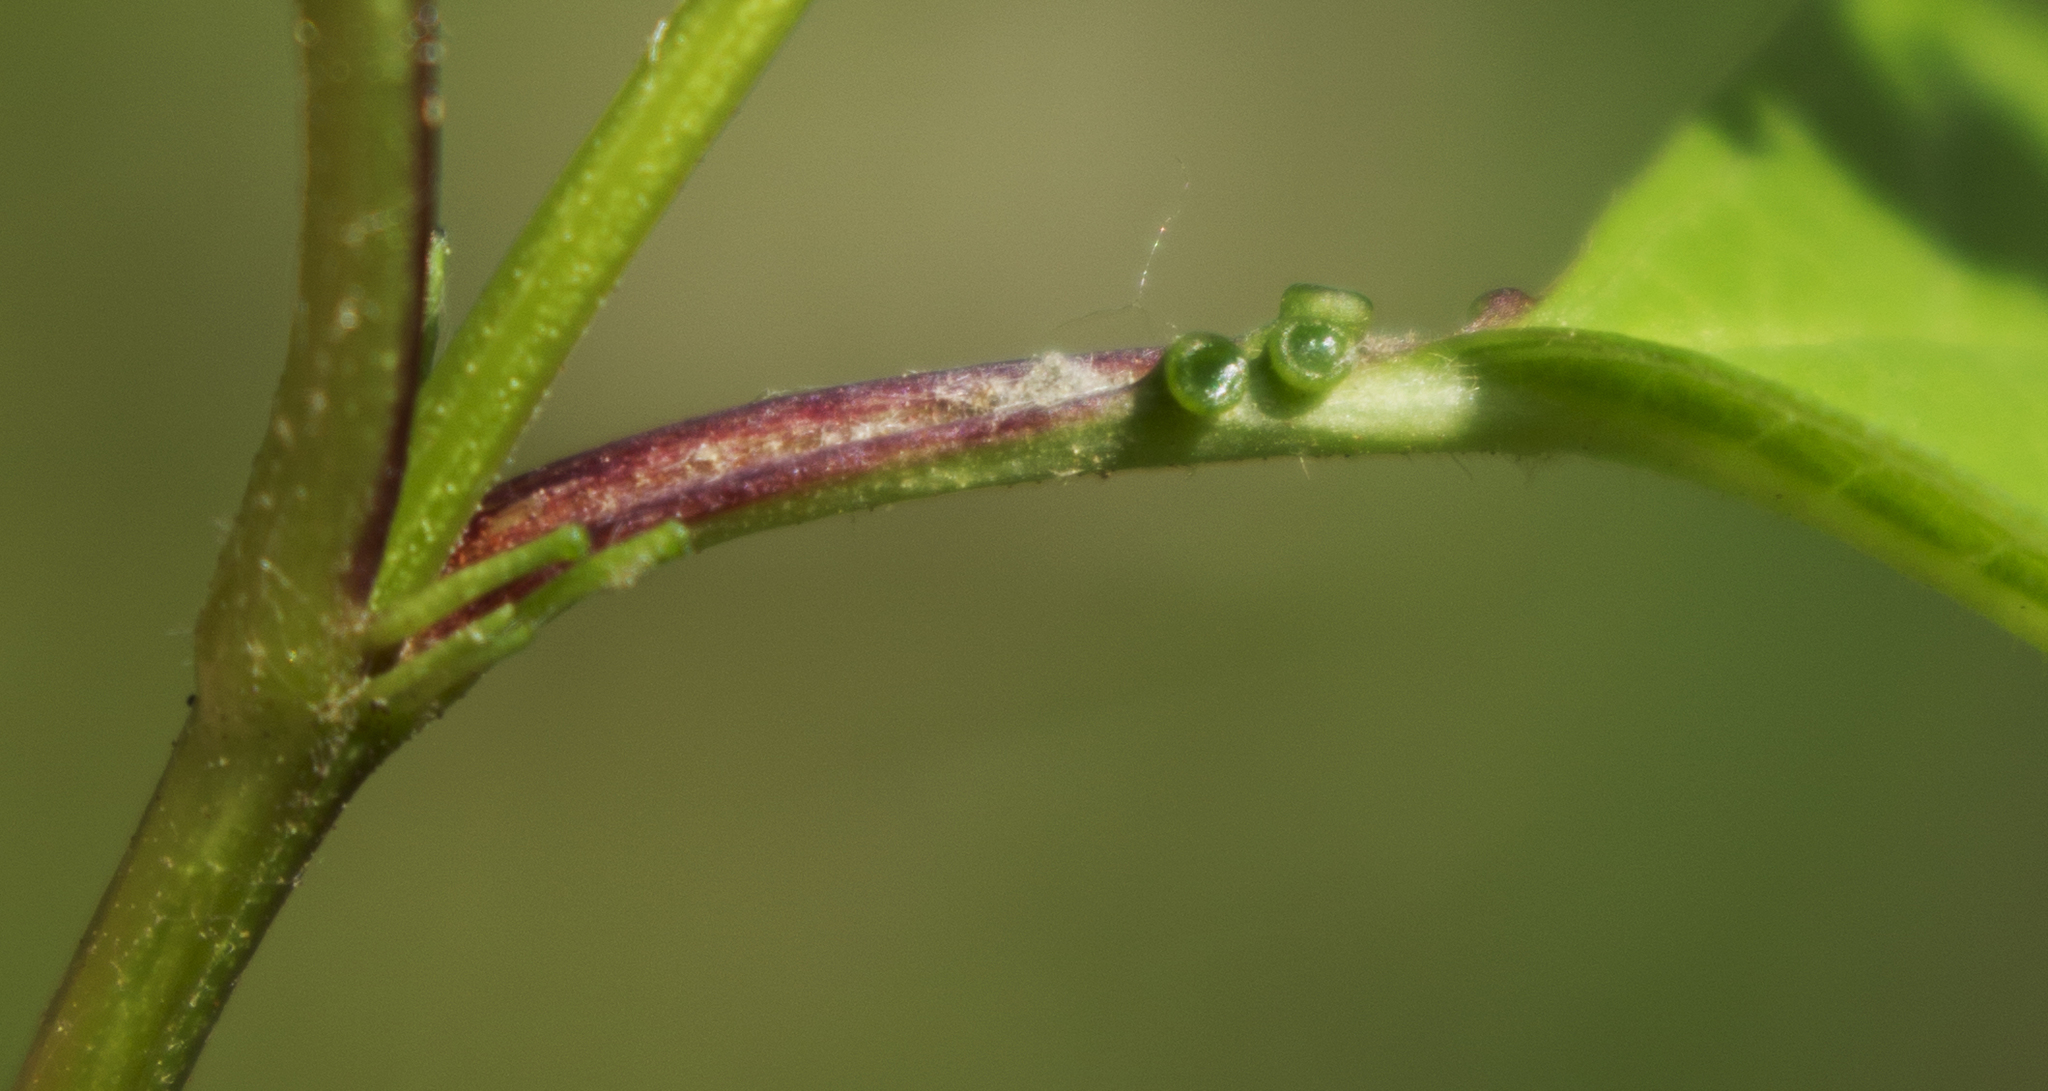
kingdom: Plantae
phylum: Tracheophyta
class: Magnoliopsida
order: Dipsacales
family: Viburnaceae
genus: Viburnum
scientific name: Viburnum opulus
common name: Guelder-rose
